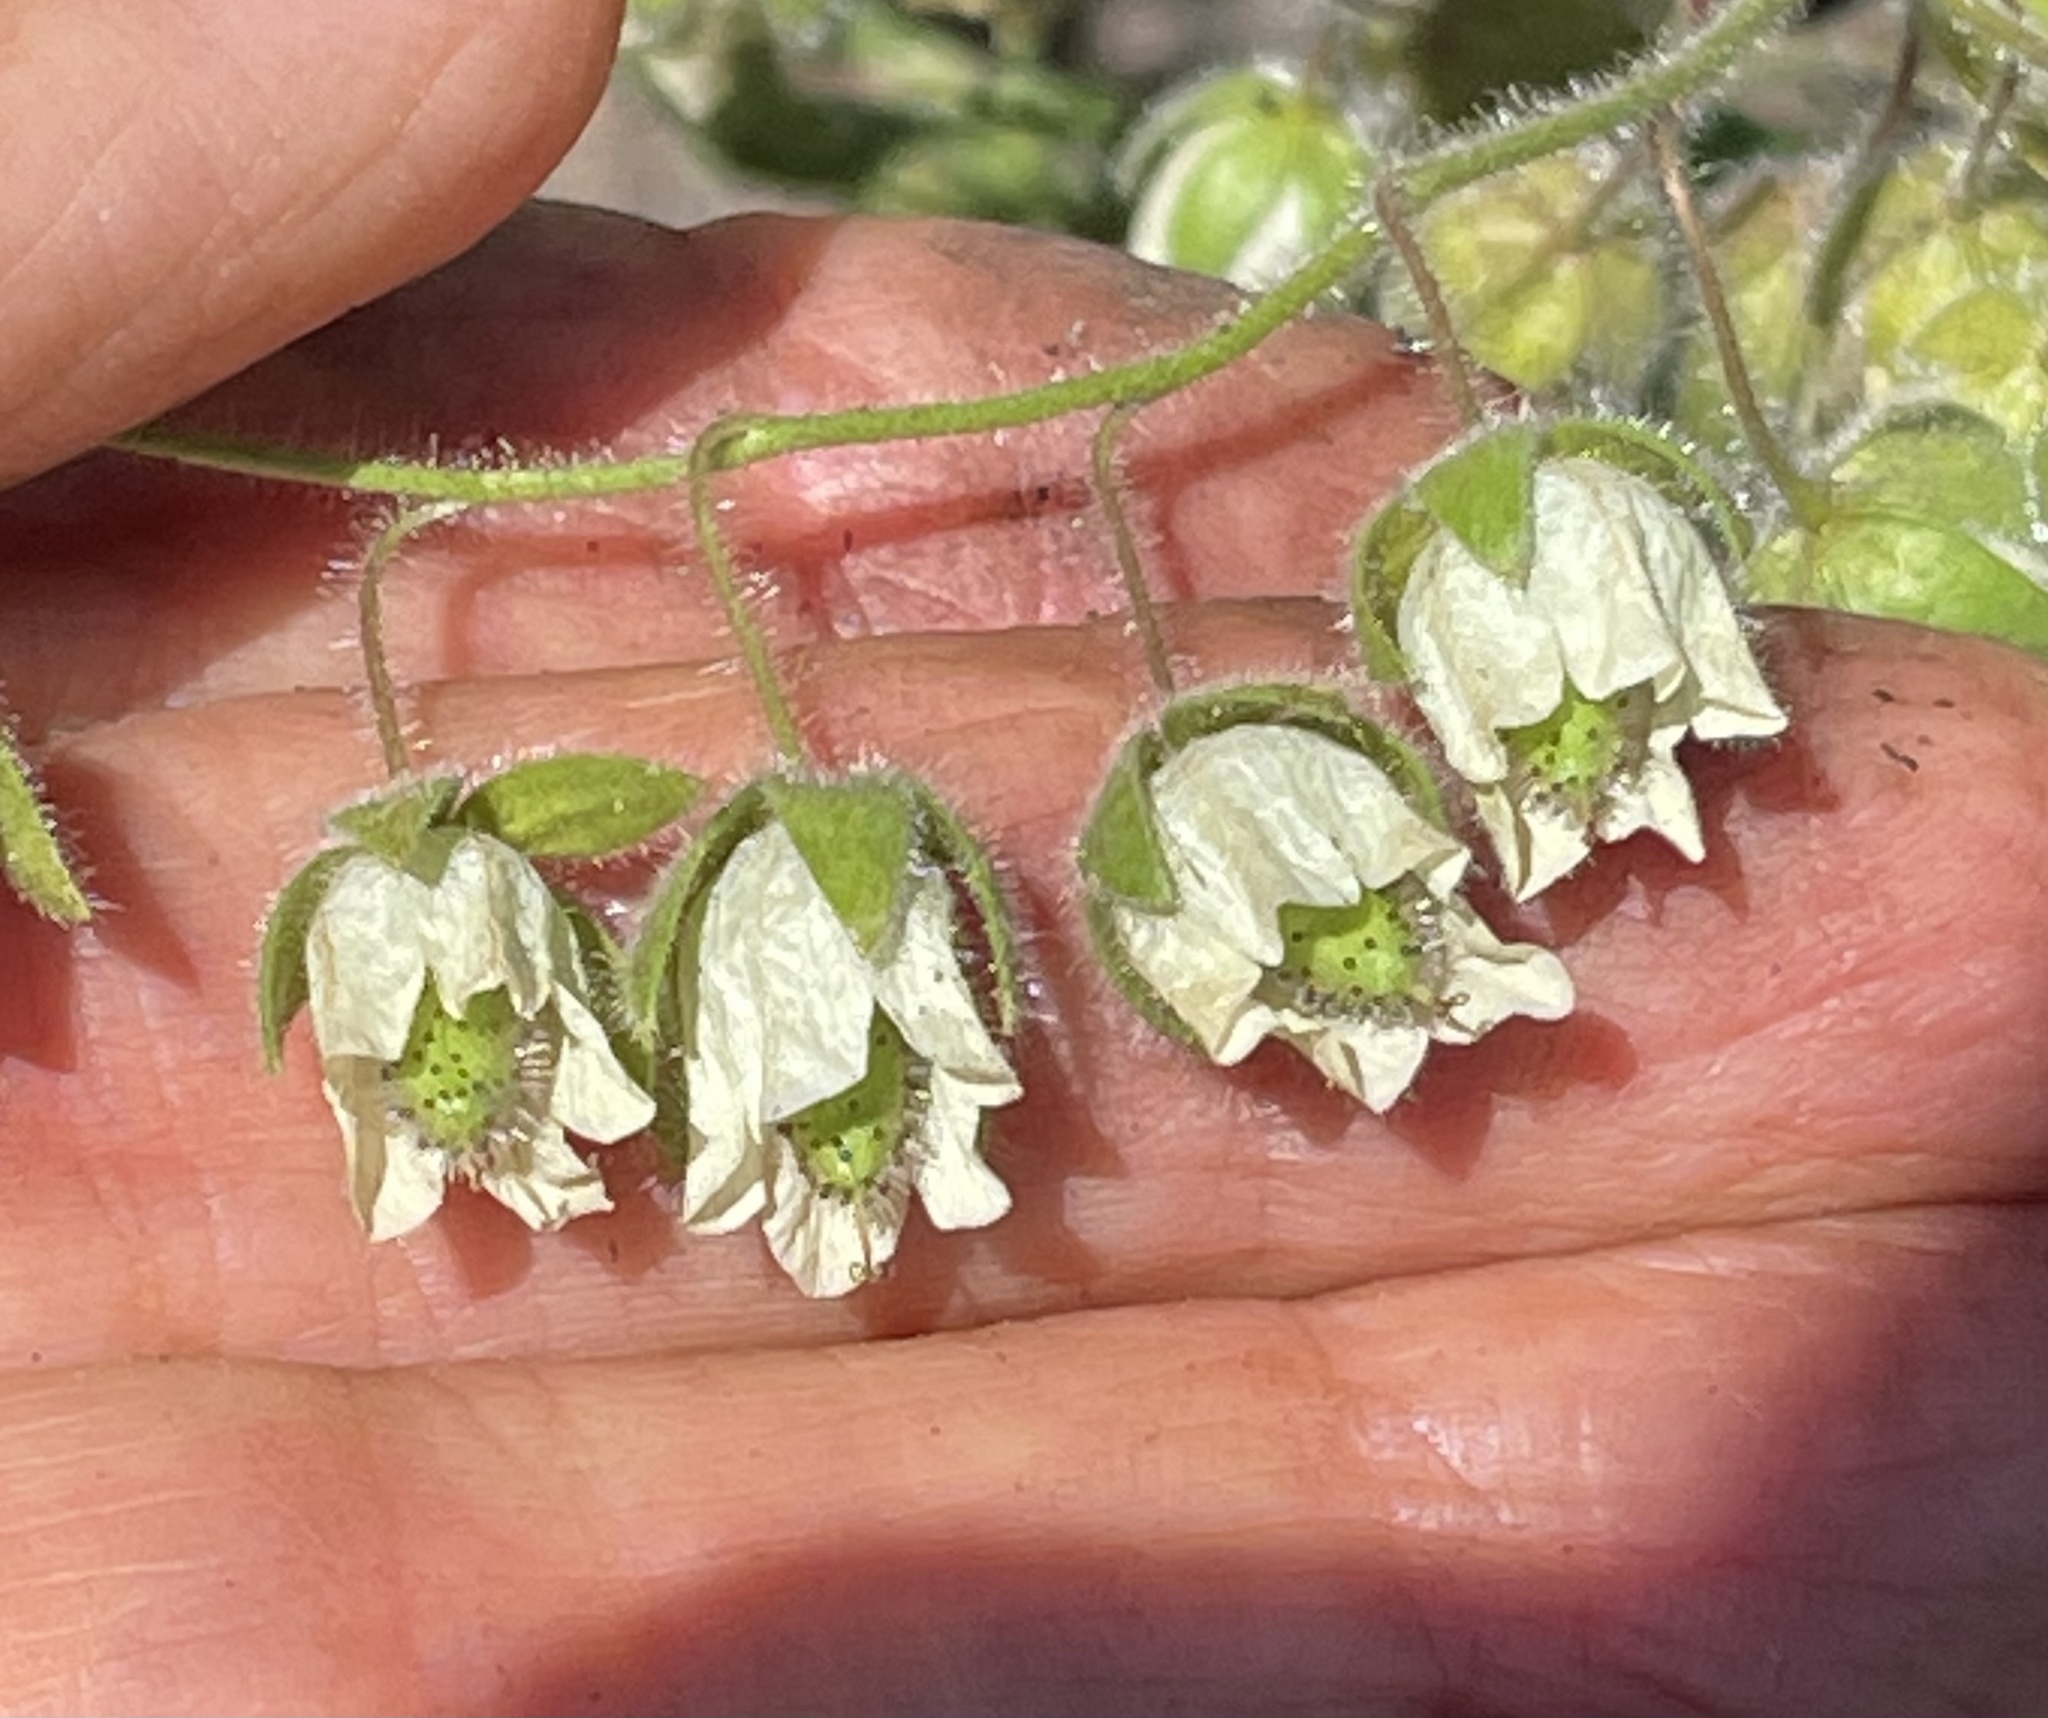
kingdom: Plantae
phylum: Tracheophyta
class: Magnoliopsida
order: Boraginales
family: Hydrophyllaceae
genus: Emmenanthe
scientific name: Emmenanthe penduliflora
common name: Whispering-bells
